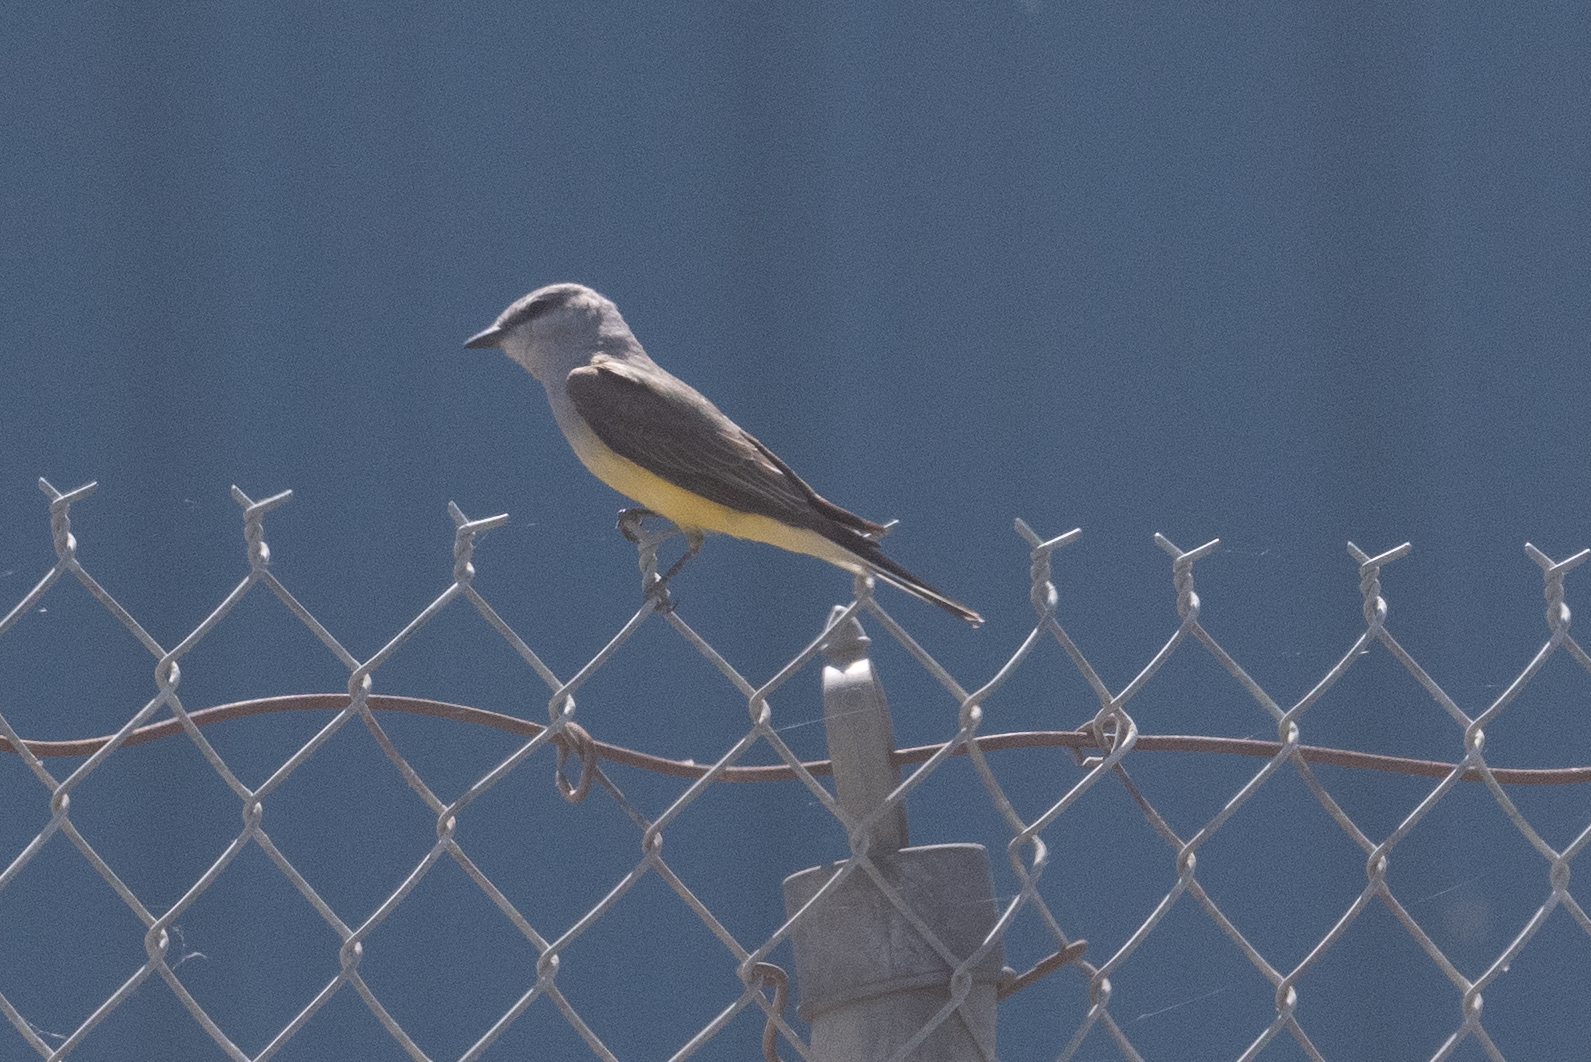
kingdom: Animalia
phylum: Chordata
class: Aves
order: Passeriformes
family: Tyrannidae
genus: Tyrannus
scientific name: Tyrannus verticalis
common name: Western kingbird
